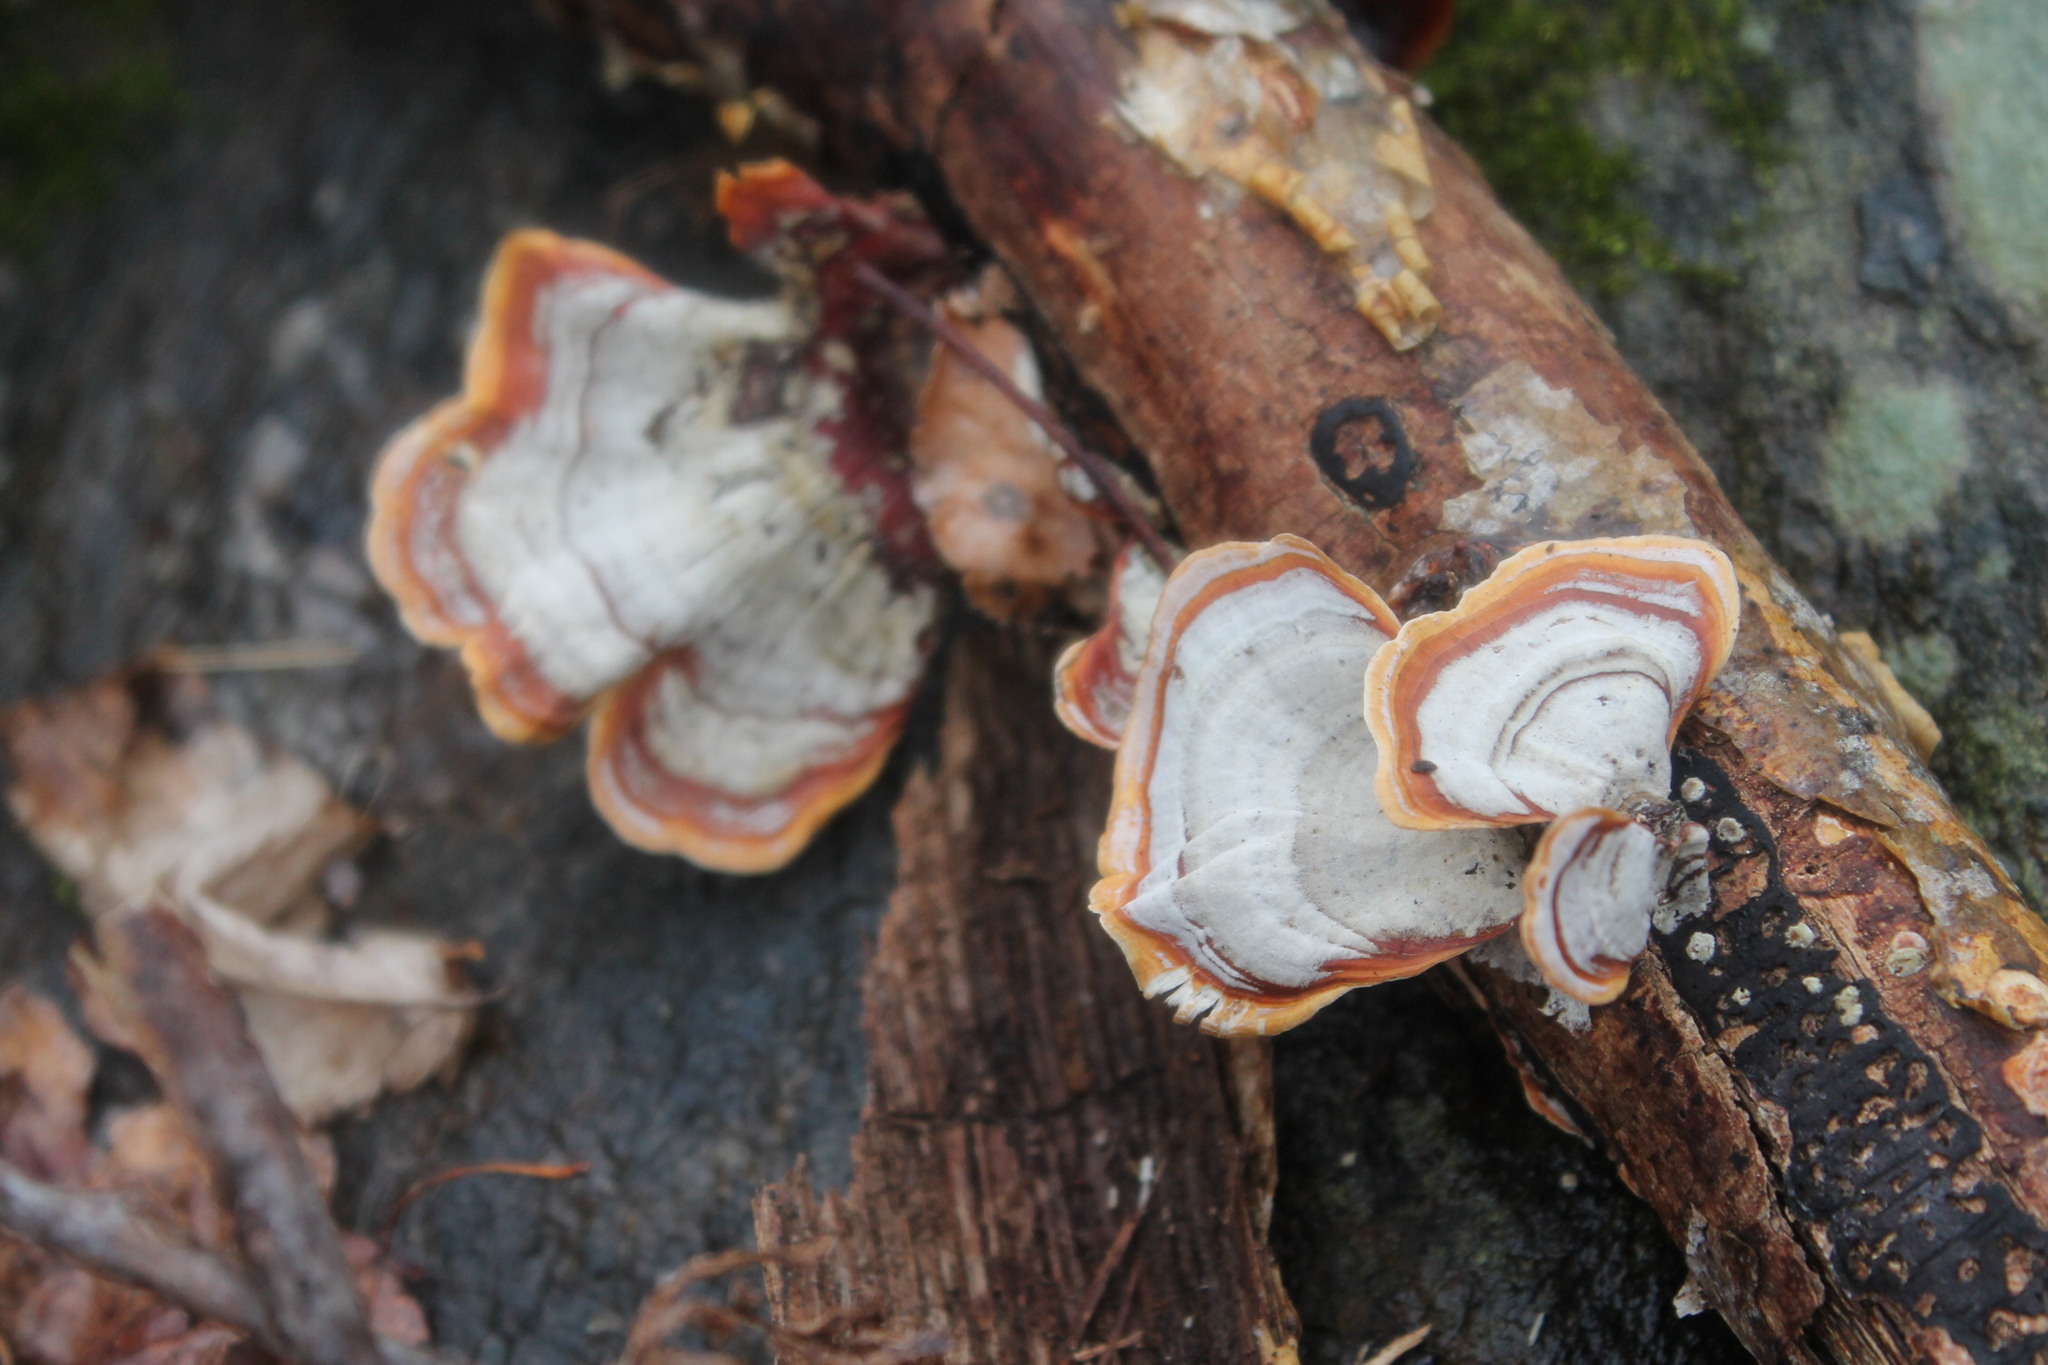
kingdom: Fungi
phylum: Basidiomycota
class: Agaricomycetes
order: Russulales
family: Stereaceae
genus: Stereum
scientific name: Stereum lobatum
